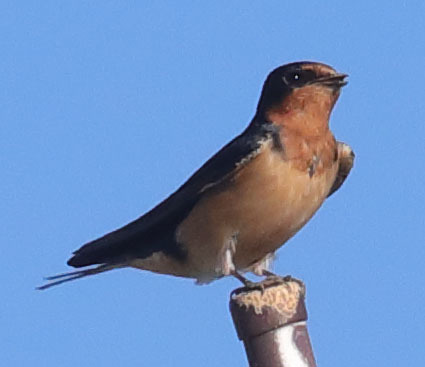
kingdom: Animalia
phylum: Chordata
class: Aves
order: Passeriformes
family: Hirundinidae
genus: Hirundo
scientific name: Hirundo rustica
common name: Barn swallow
